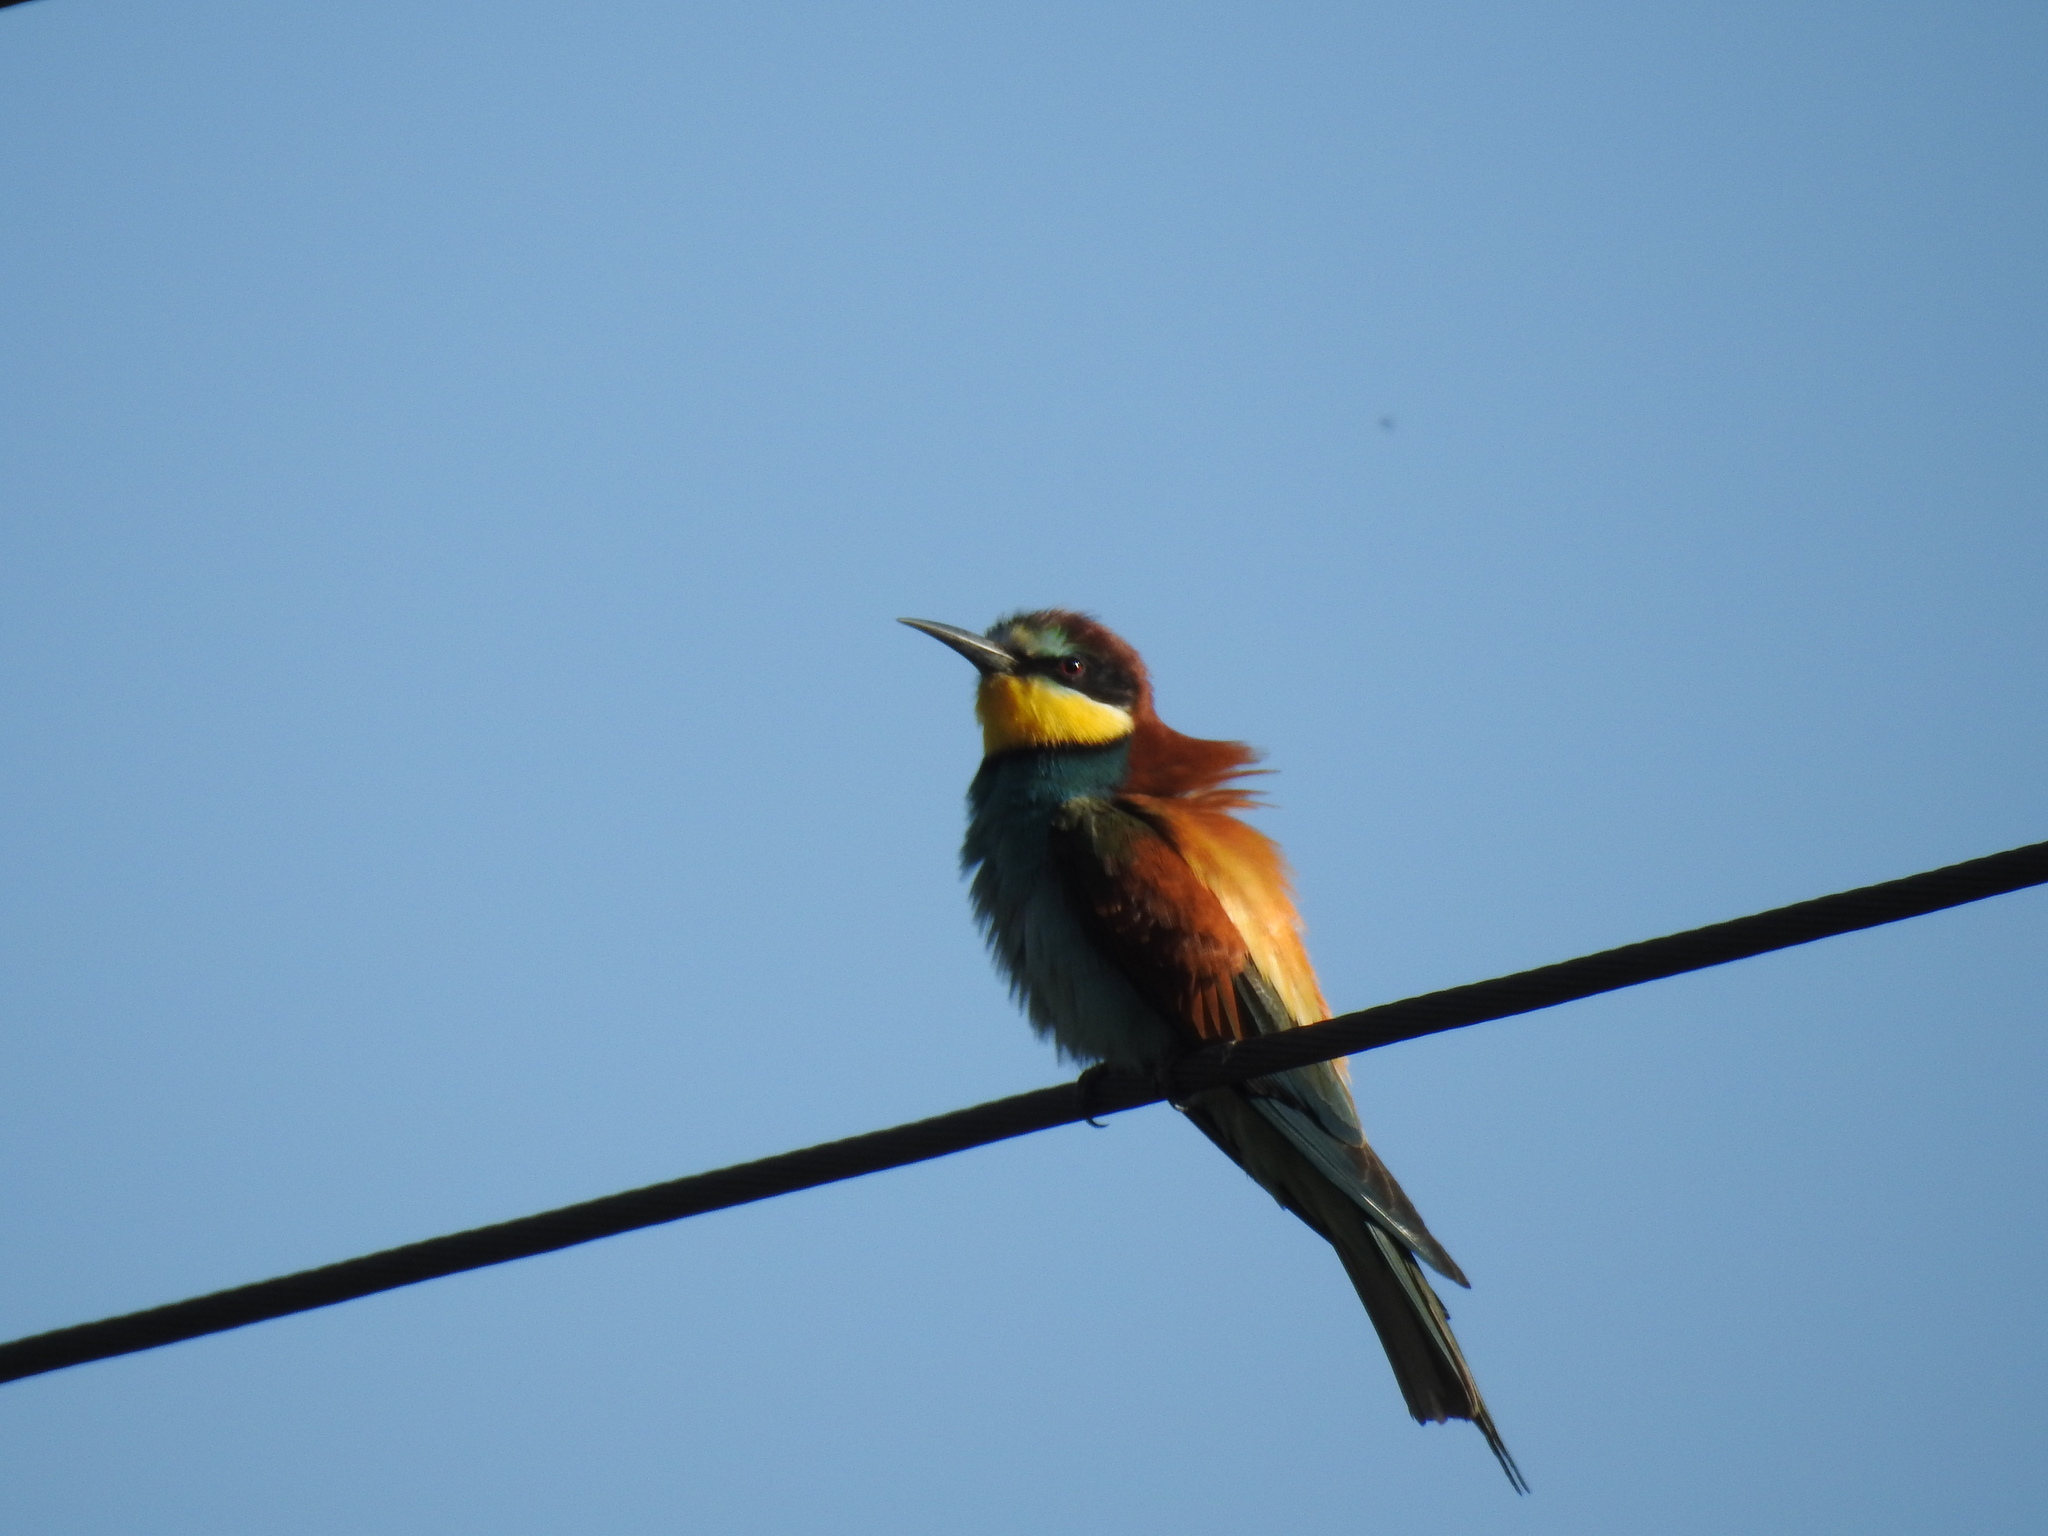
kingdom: Animalia
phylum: Chordata
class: Aves
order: Coraciiformes
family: Meropidae
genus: Merops
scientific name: Merops apiaster
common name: European bee-eater
